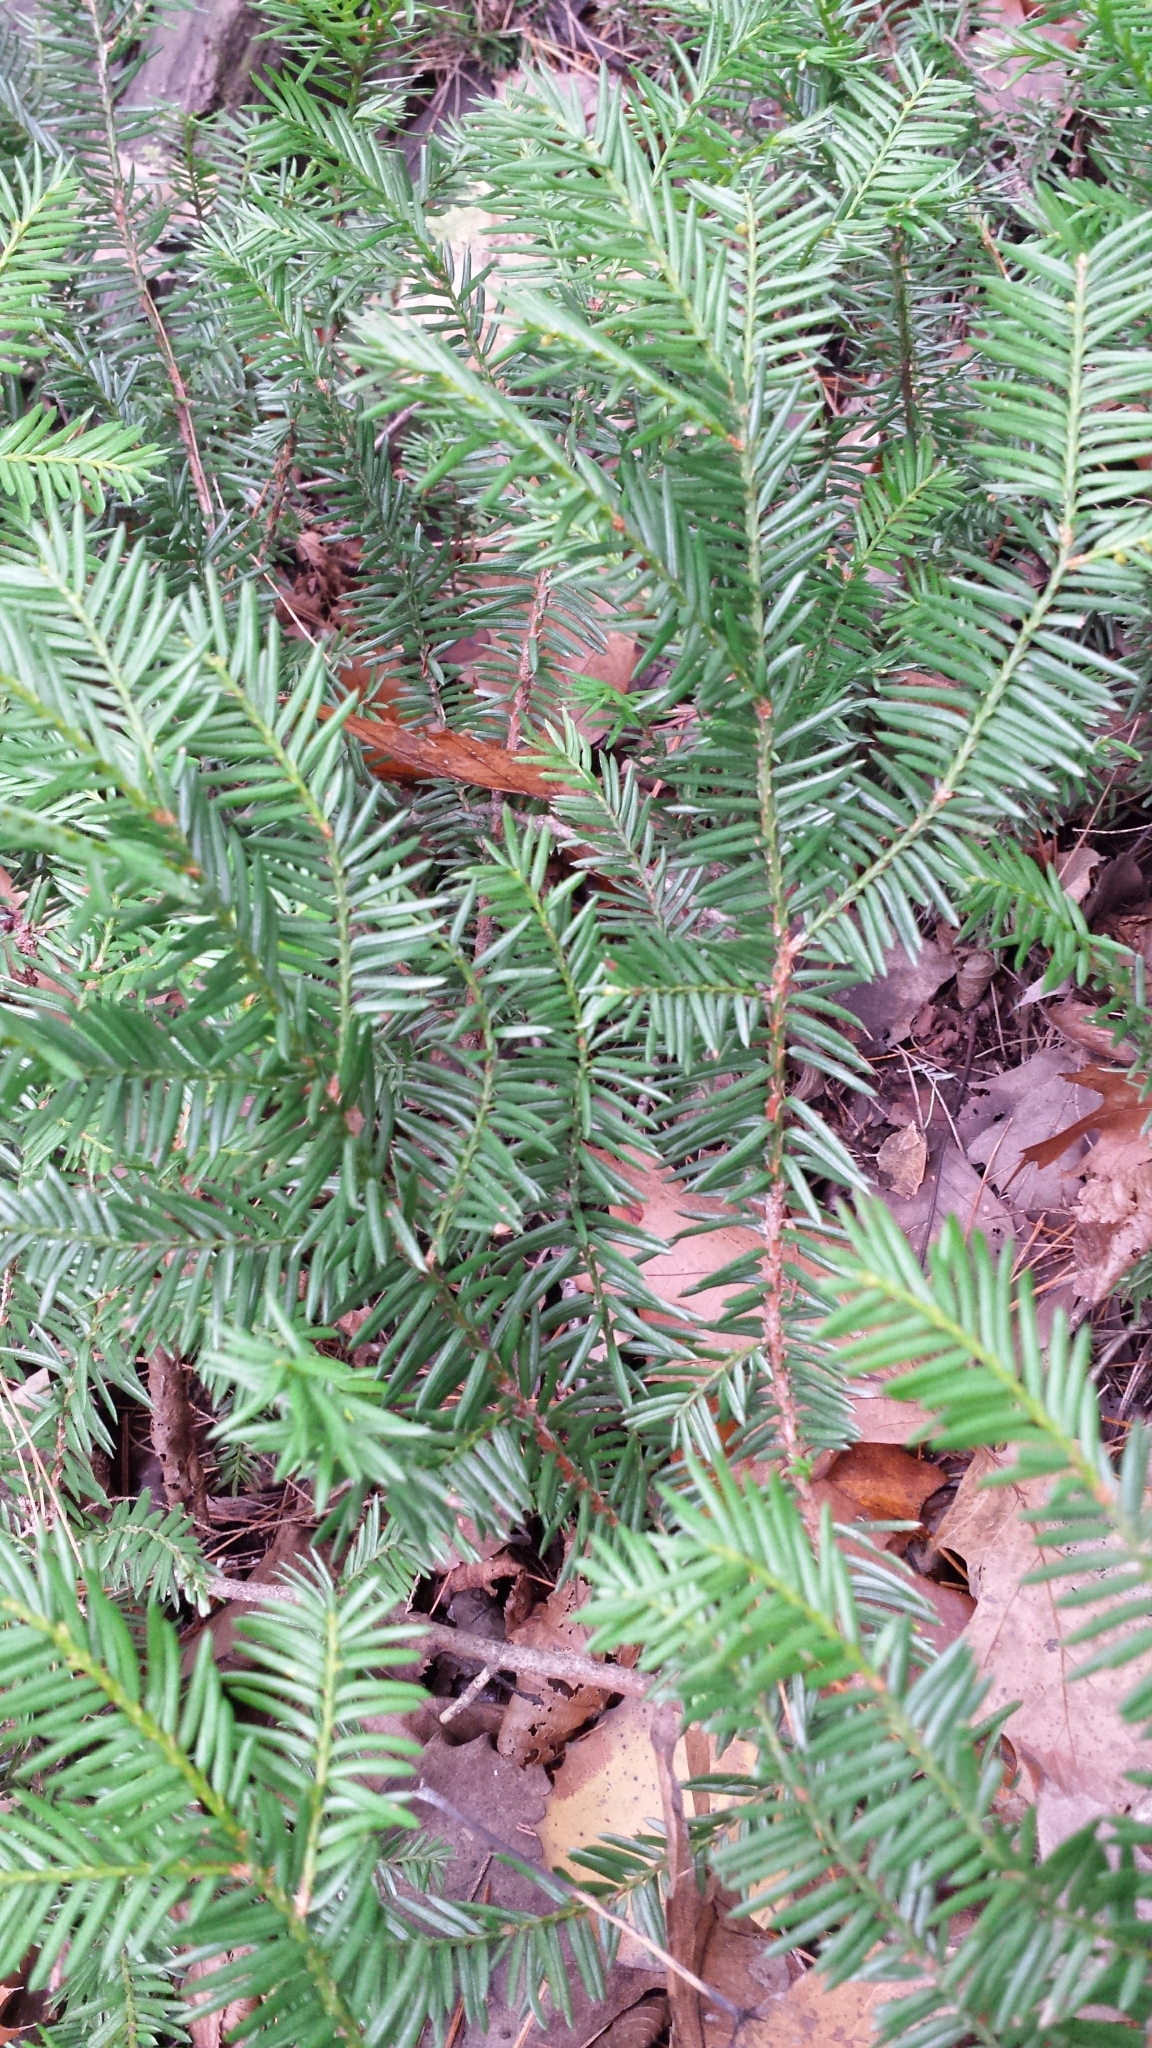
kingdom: Plantae
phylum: Tracheophyta
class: Pinopsida
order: Pinales
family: Taxaceae
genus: Taxus
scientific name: Taxus canadensis
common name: American yew
